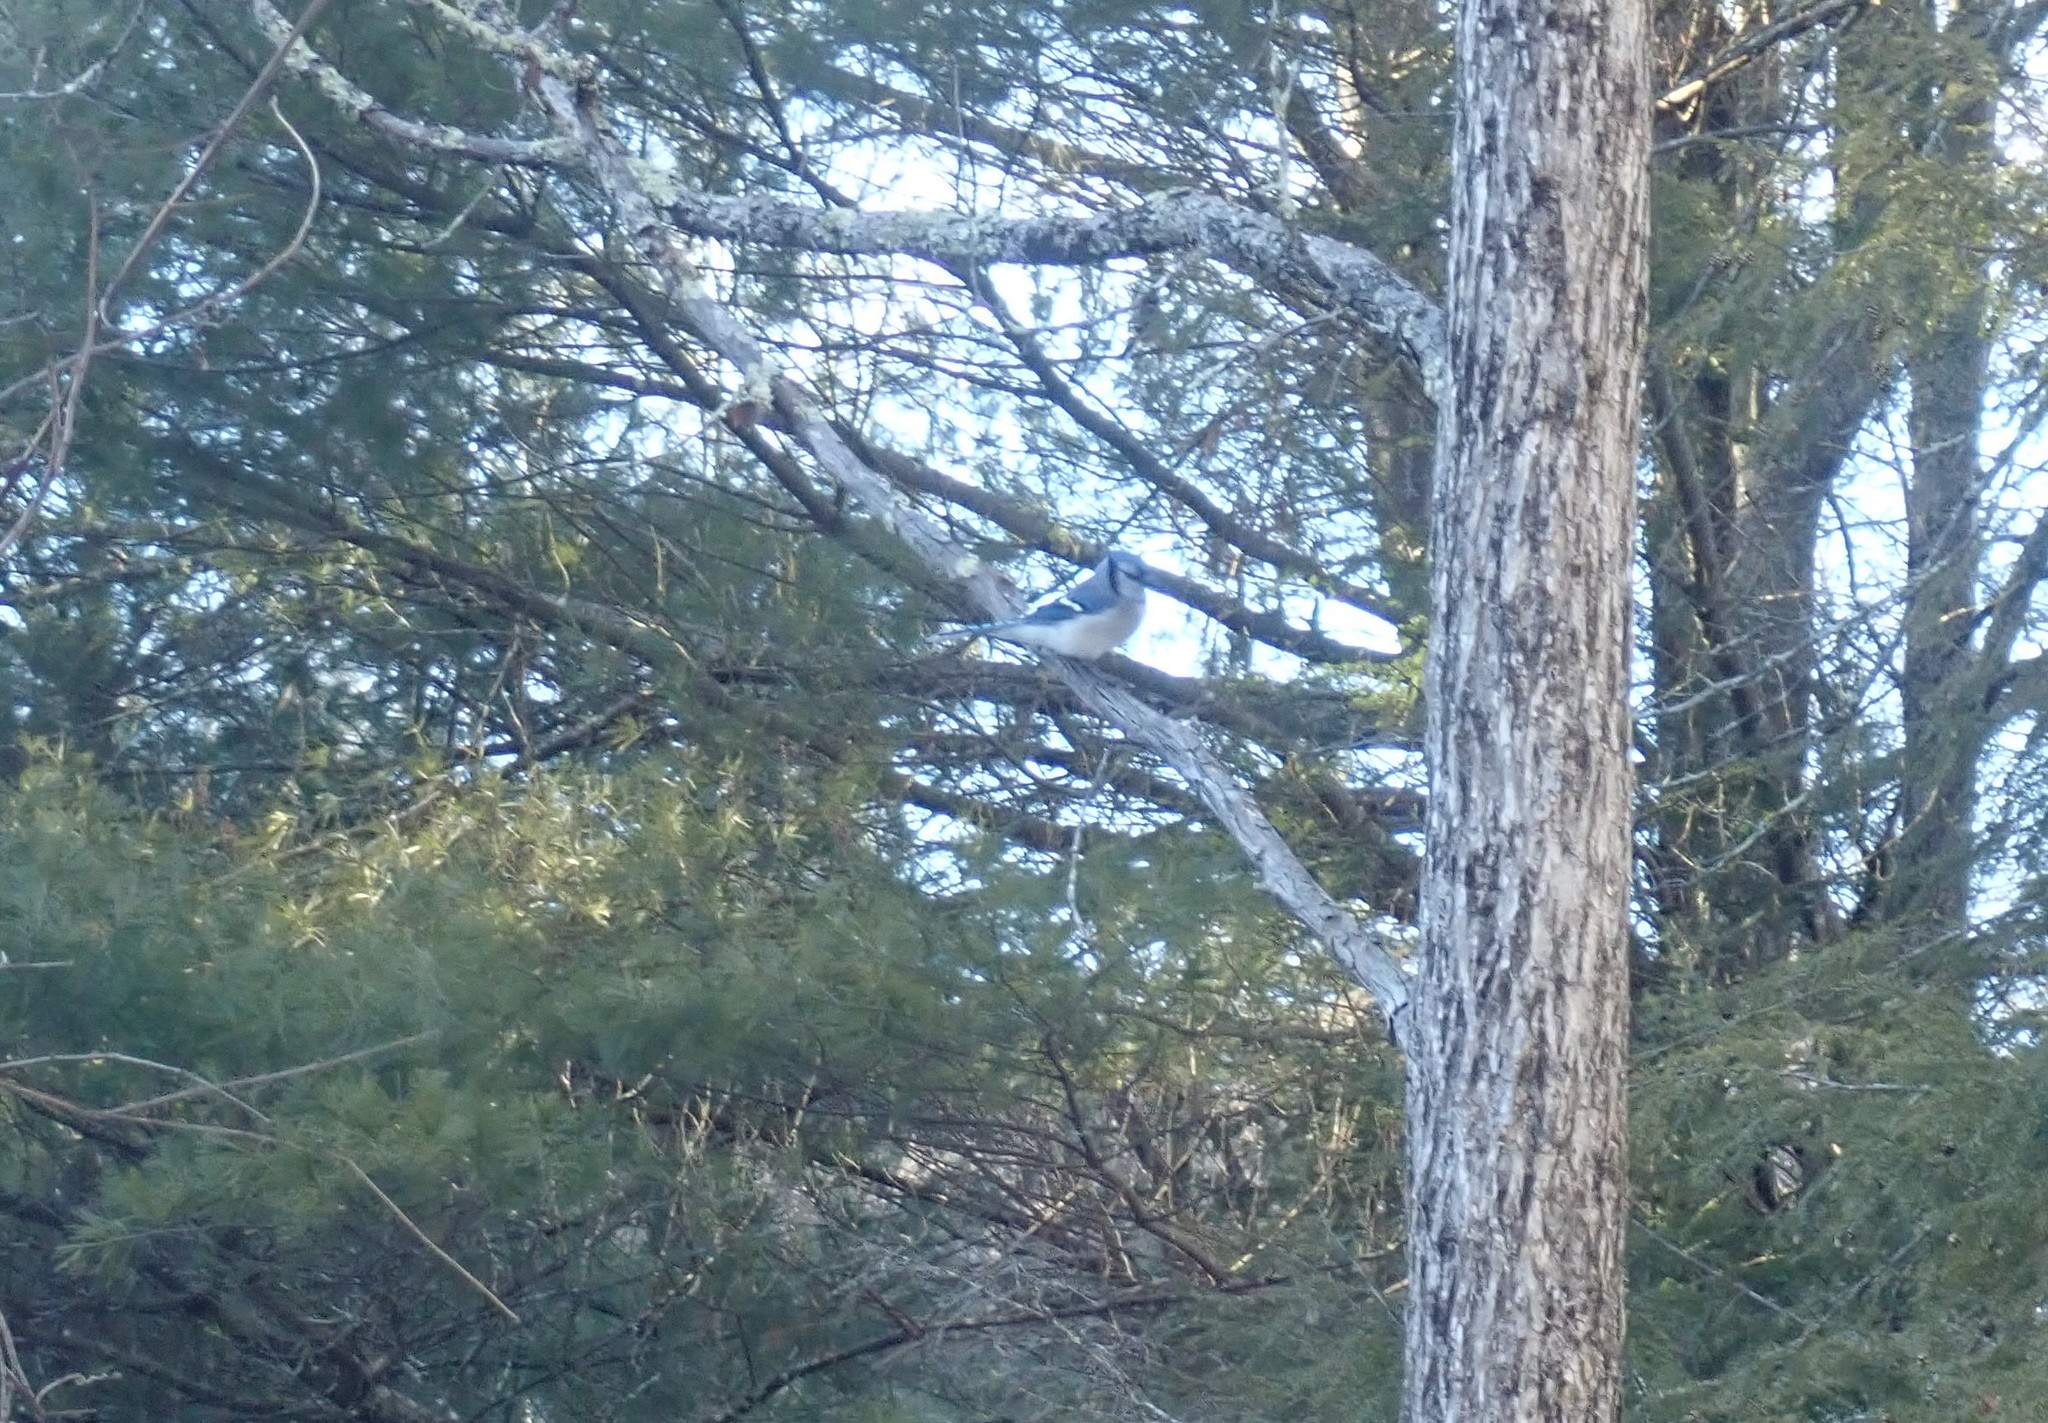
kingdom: Animalia
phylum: Chordata
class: Aves
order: Passeriformes
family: Corvidae
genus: Cyanocitta
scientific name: Cyanocitta cristata
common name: Blue jay
